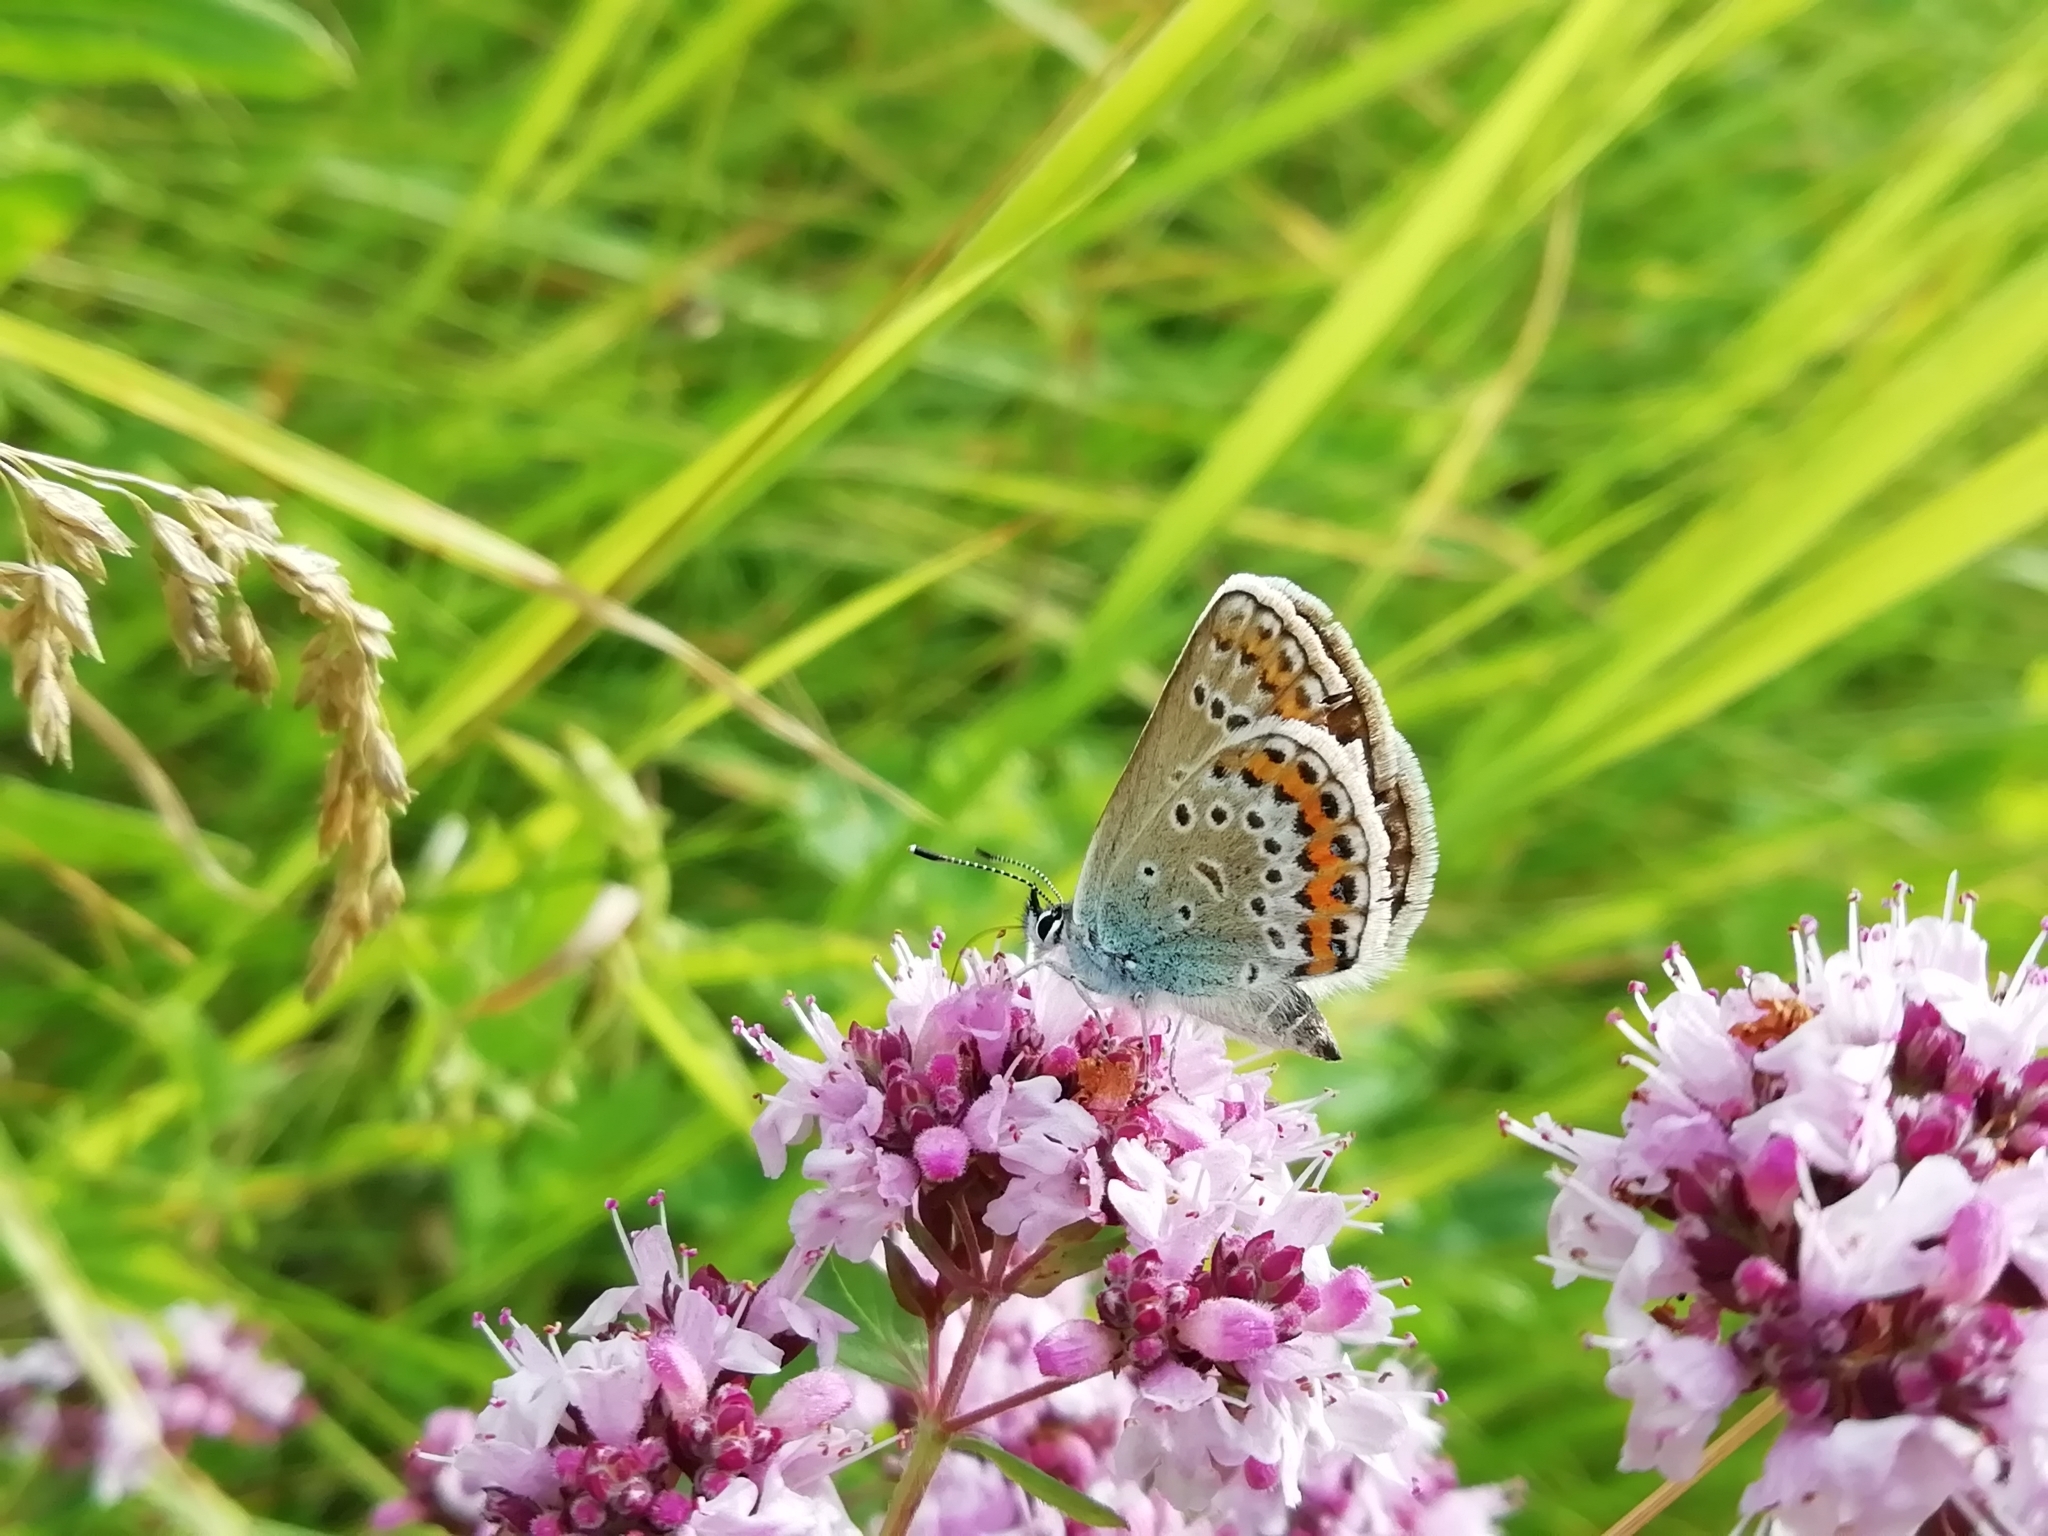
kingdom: Animalia
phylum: Arthropoda
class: Insecta
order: Lepidoptera
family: Lycaenidae
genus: Plebejus
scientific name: Plebejus argus
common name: Silver-studded blue
